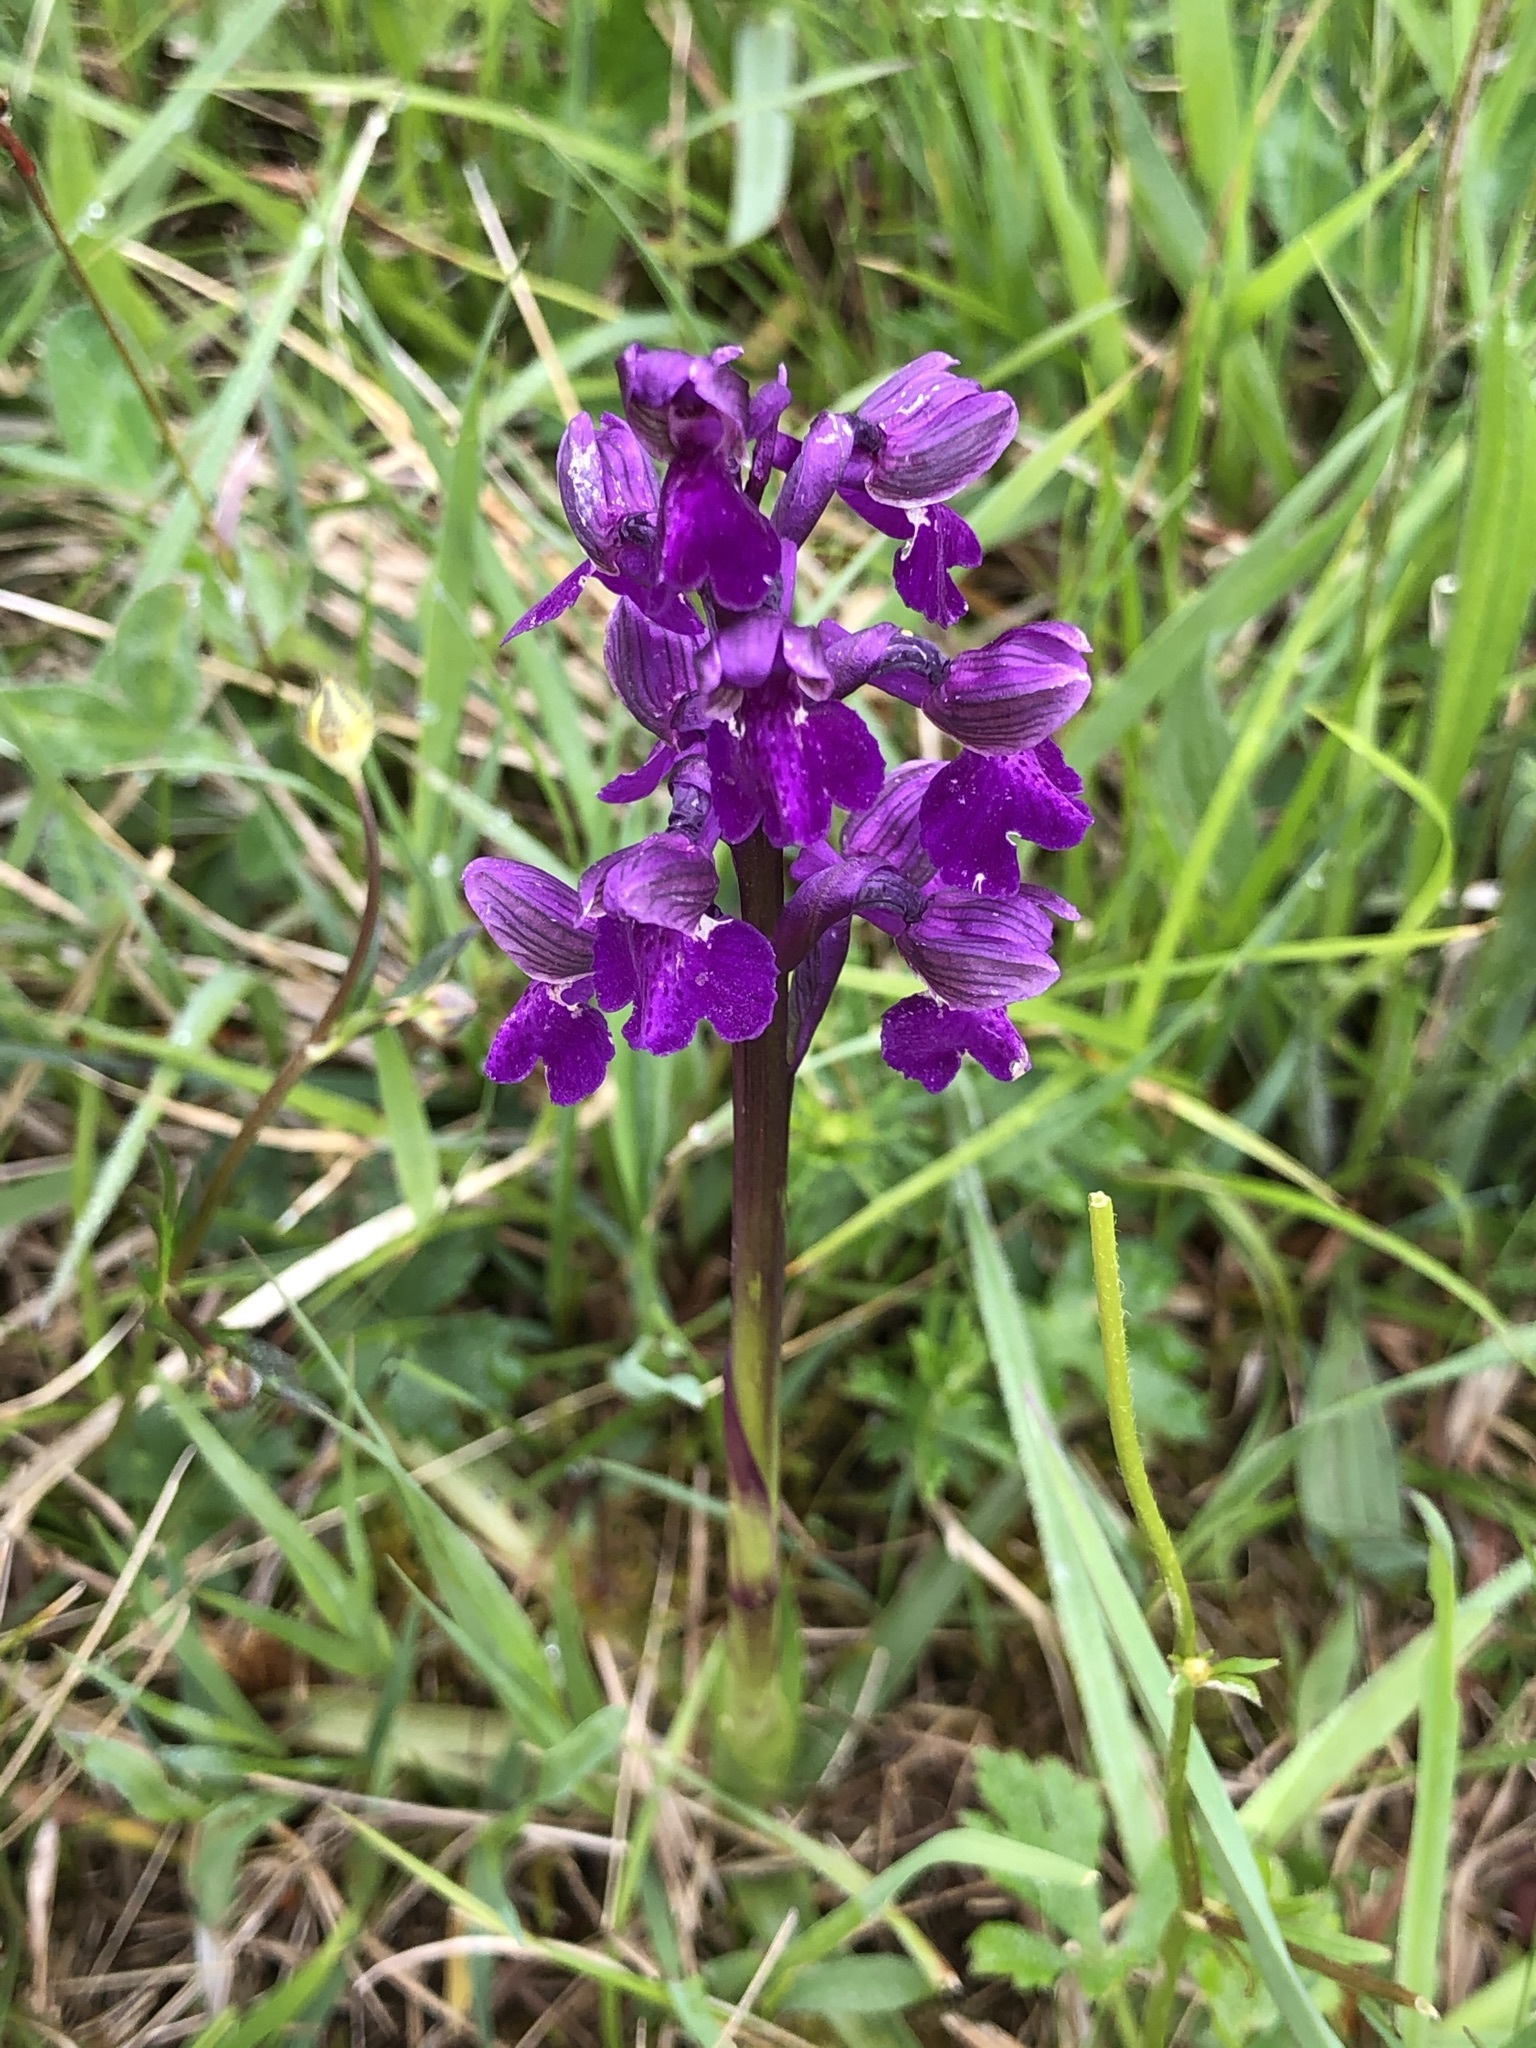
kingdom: Plantae
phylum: Tracheophyta
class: Liliopsida
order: Asparagales
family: Orchidaceae
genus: Anacamptis
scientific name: Anacamptis morio
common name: Green-winged orchid
